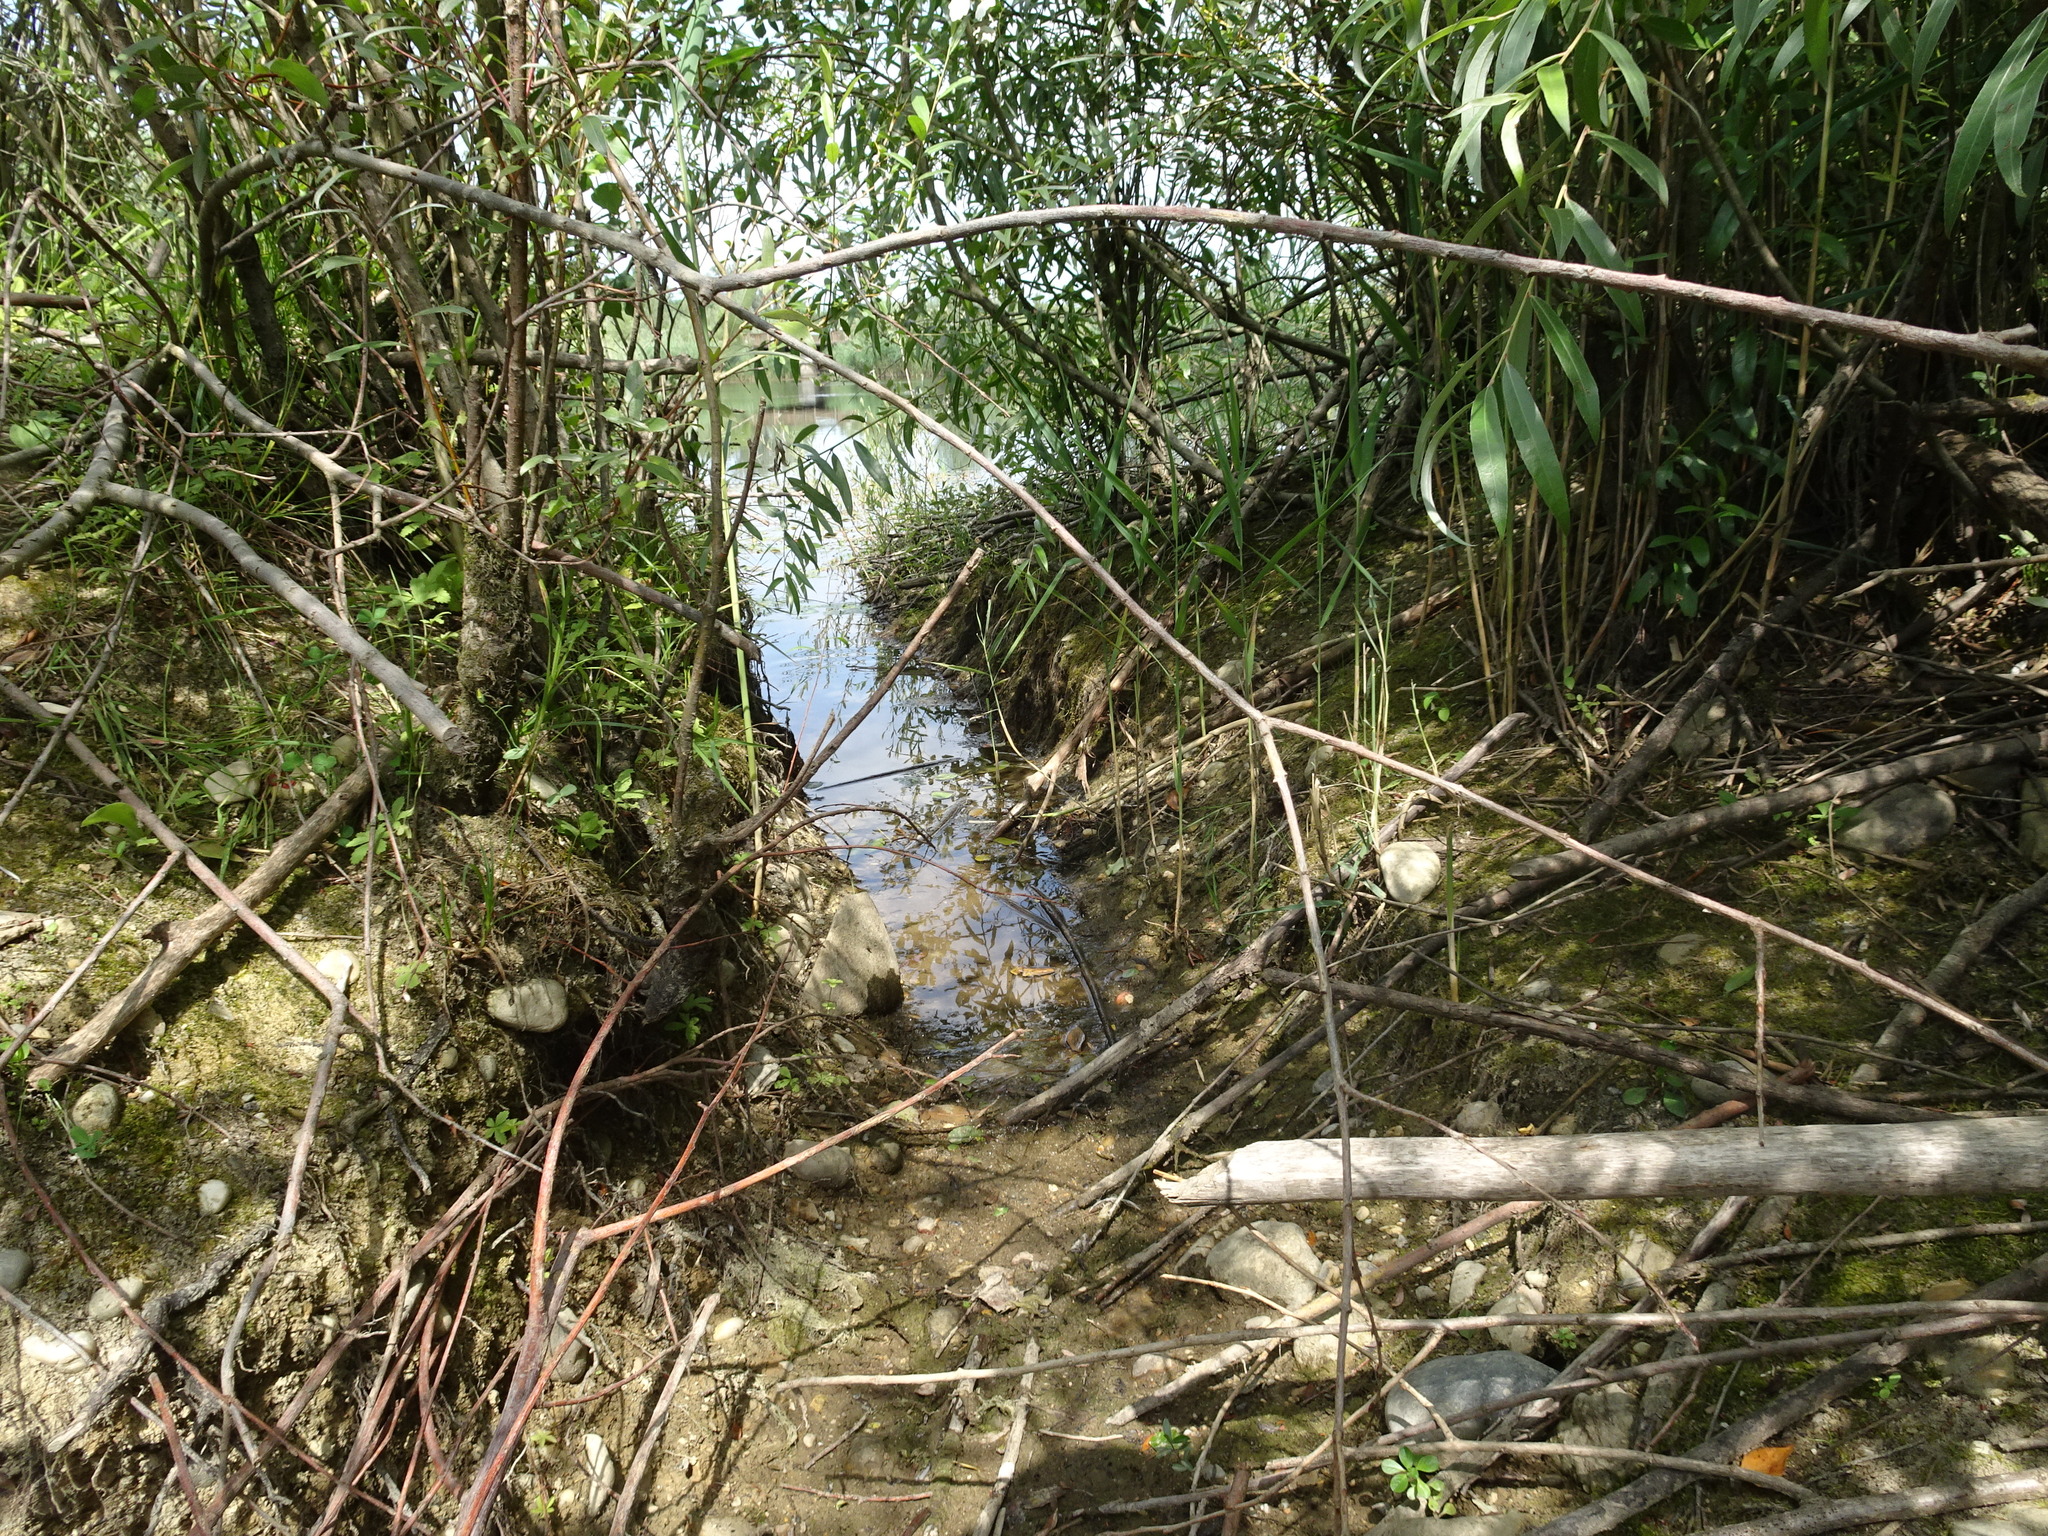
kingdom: Animalia
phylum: Chordata
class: Mammalia
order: Rodentia
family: Castoridae
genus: Castor
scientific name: Castor fiber
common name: Eurasian beaver
